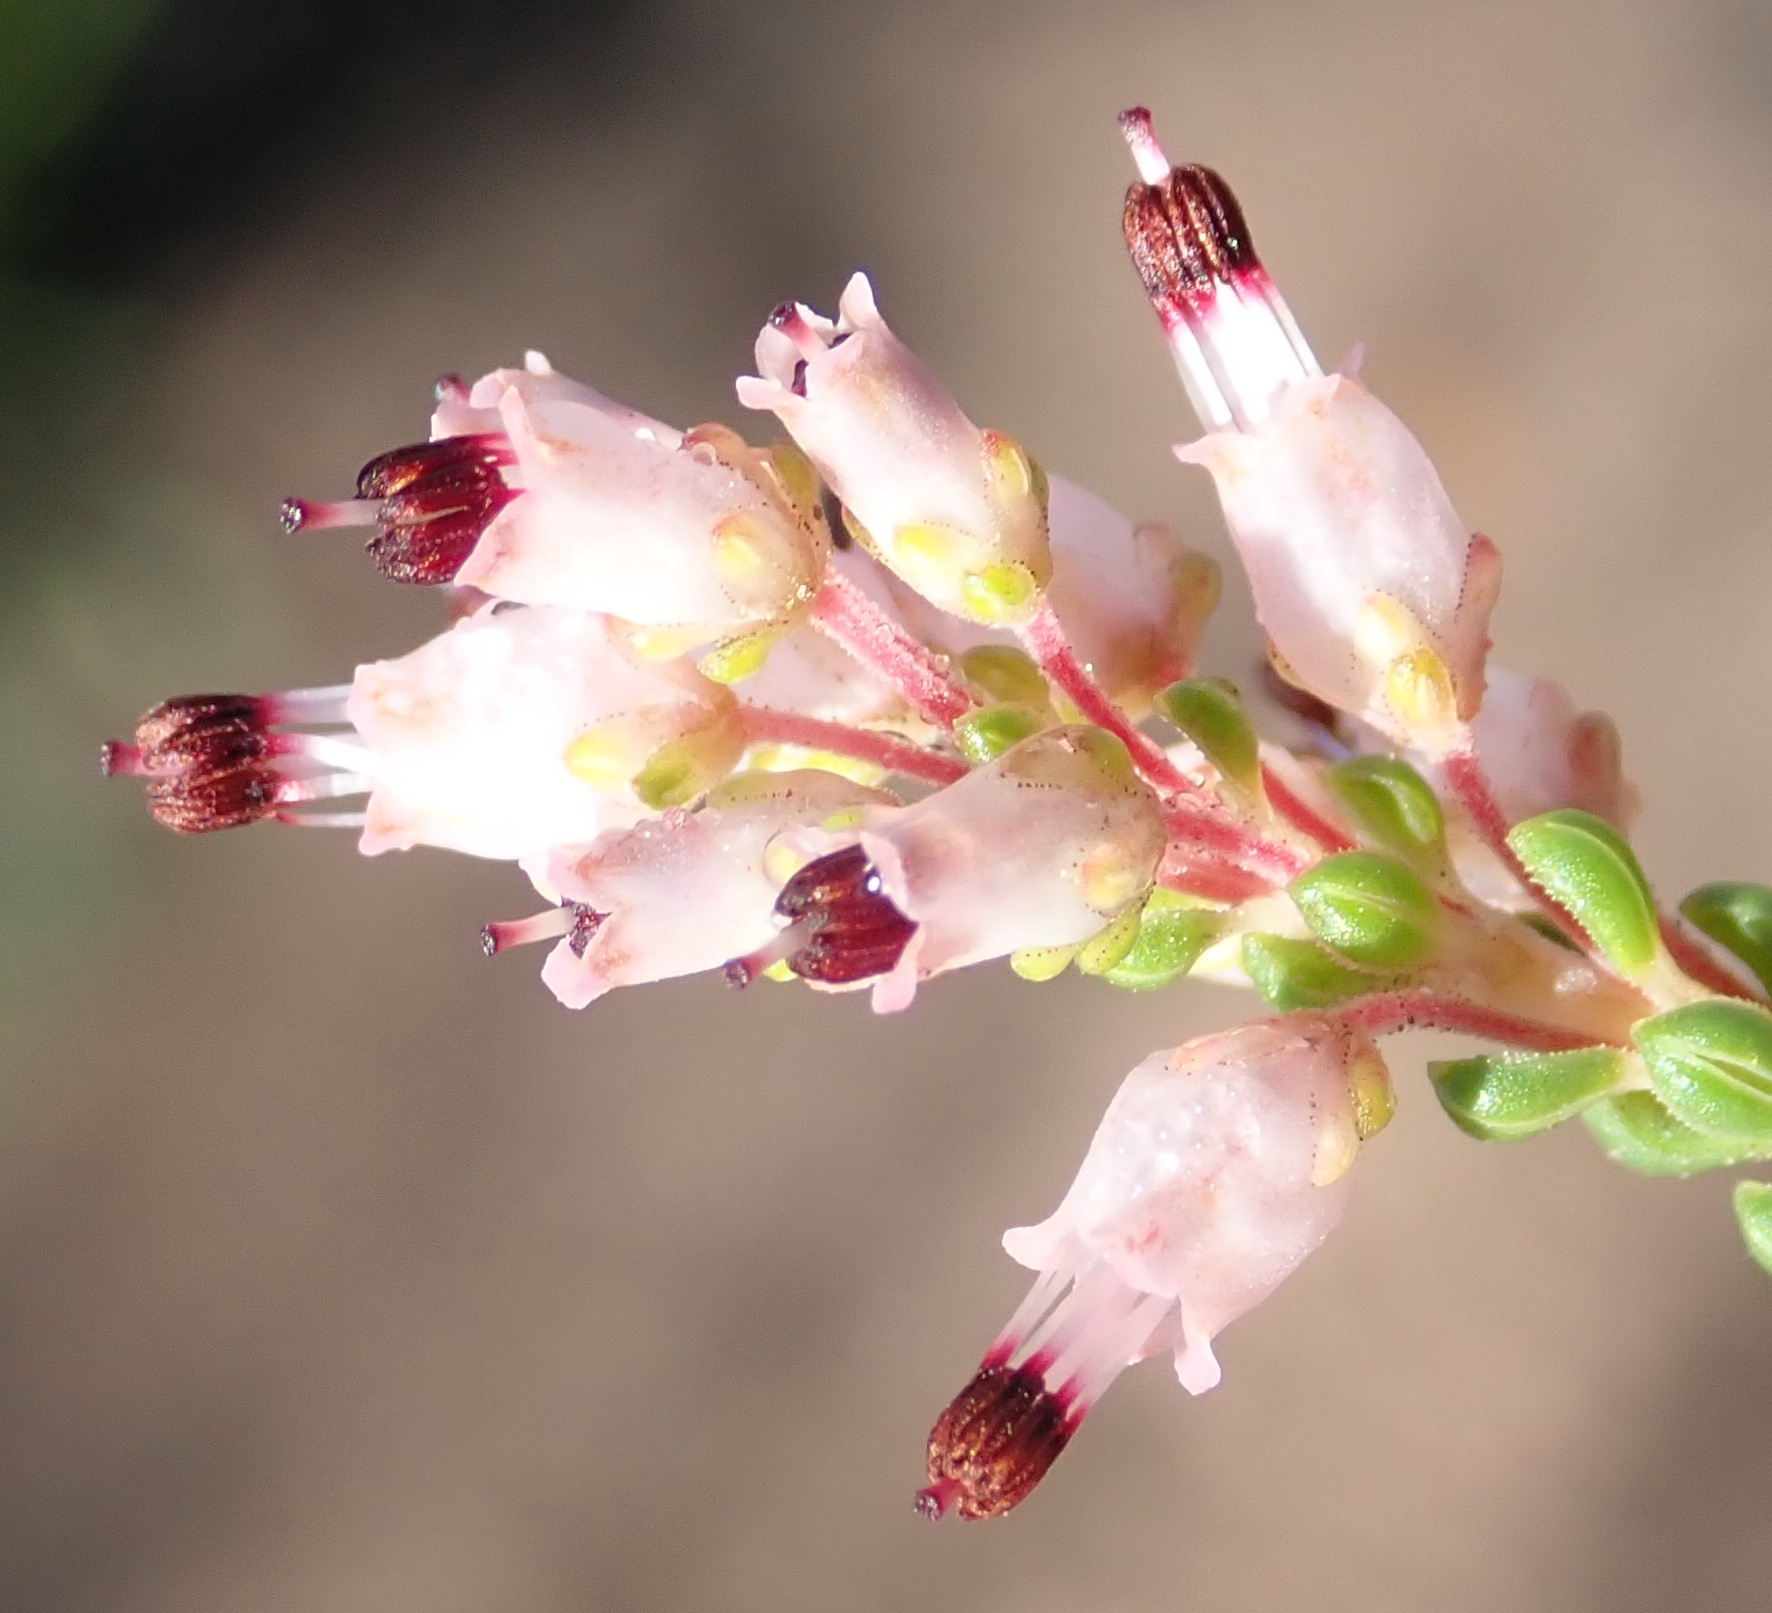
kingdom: Plantae
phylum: Tracheophyta
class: Magnoliopsida
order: Ericales
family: Ericaceae
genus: Erica
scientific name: Erica petraea
